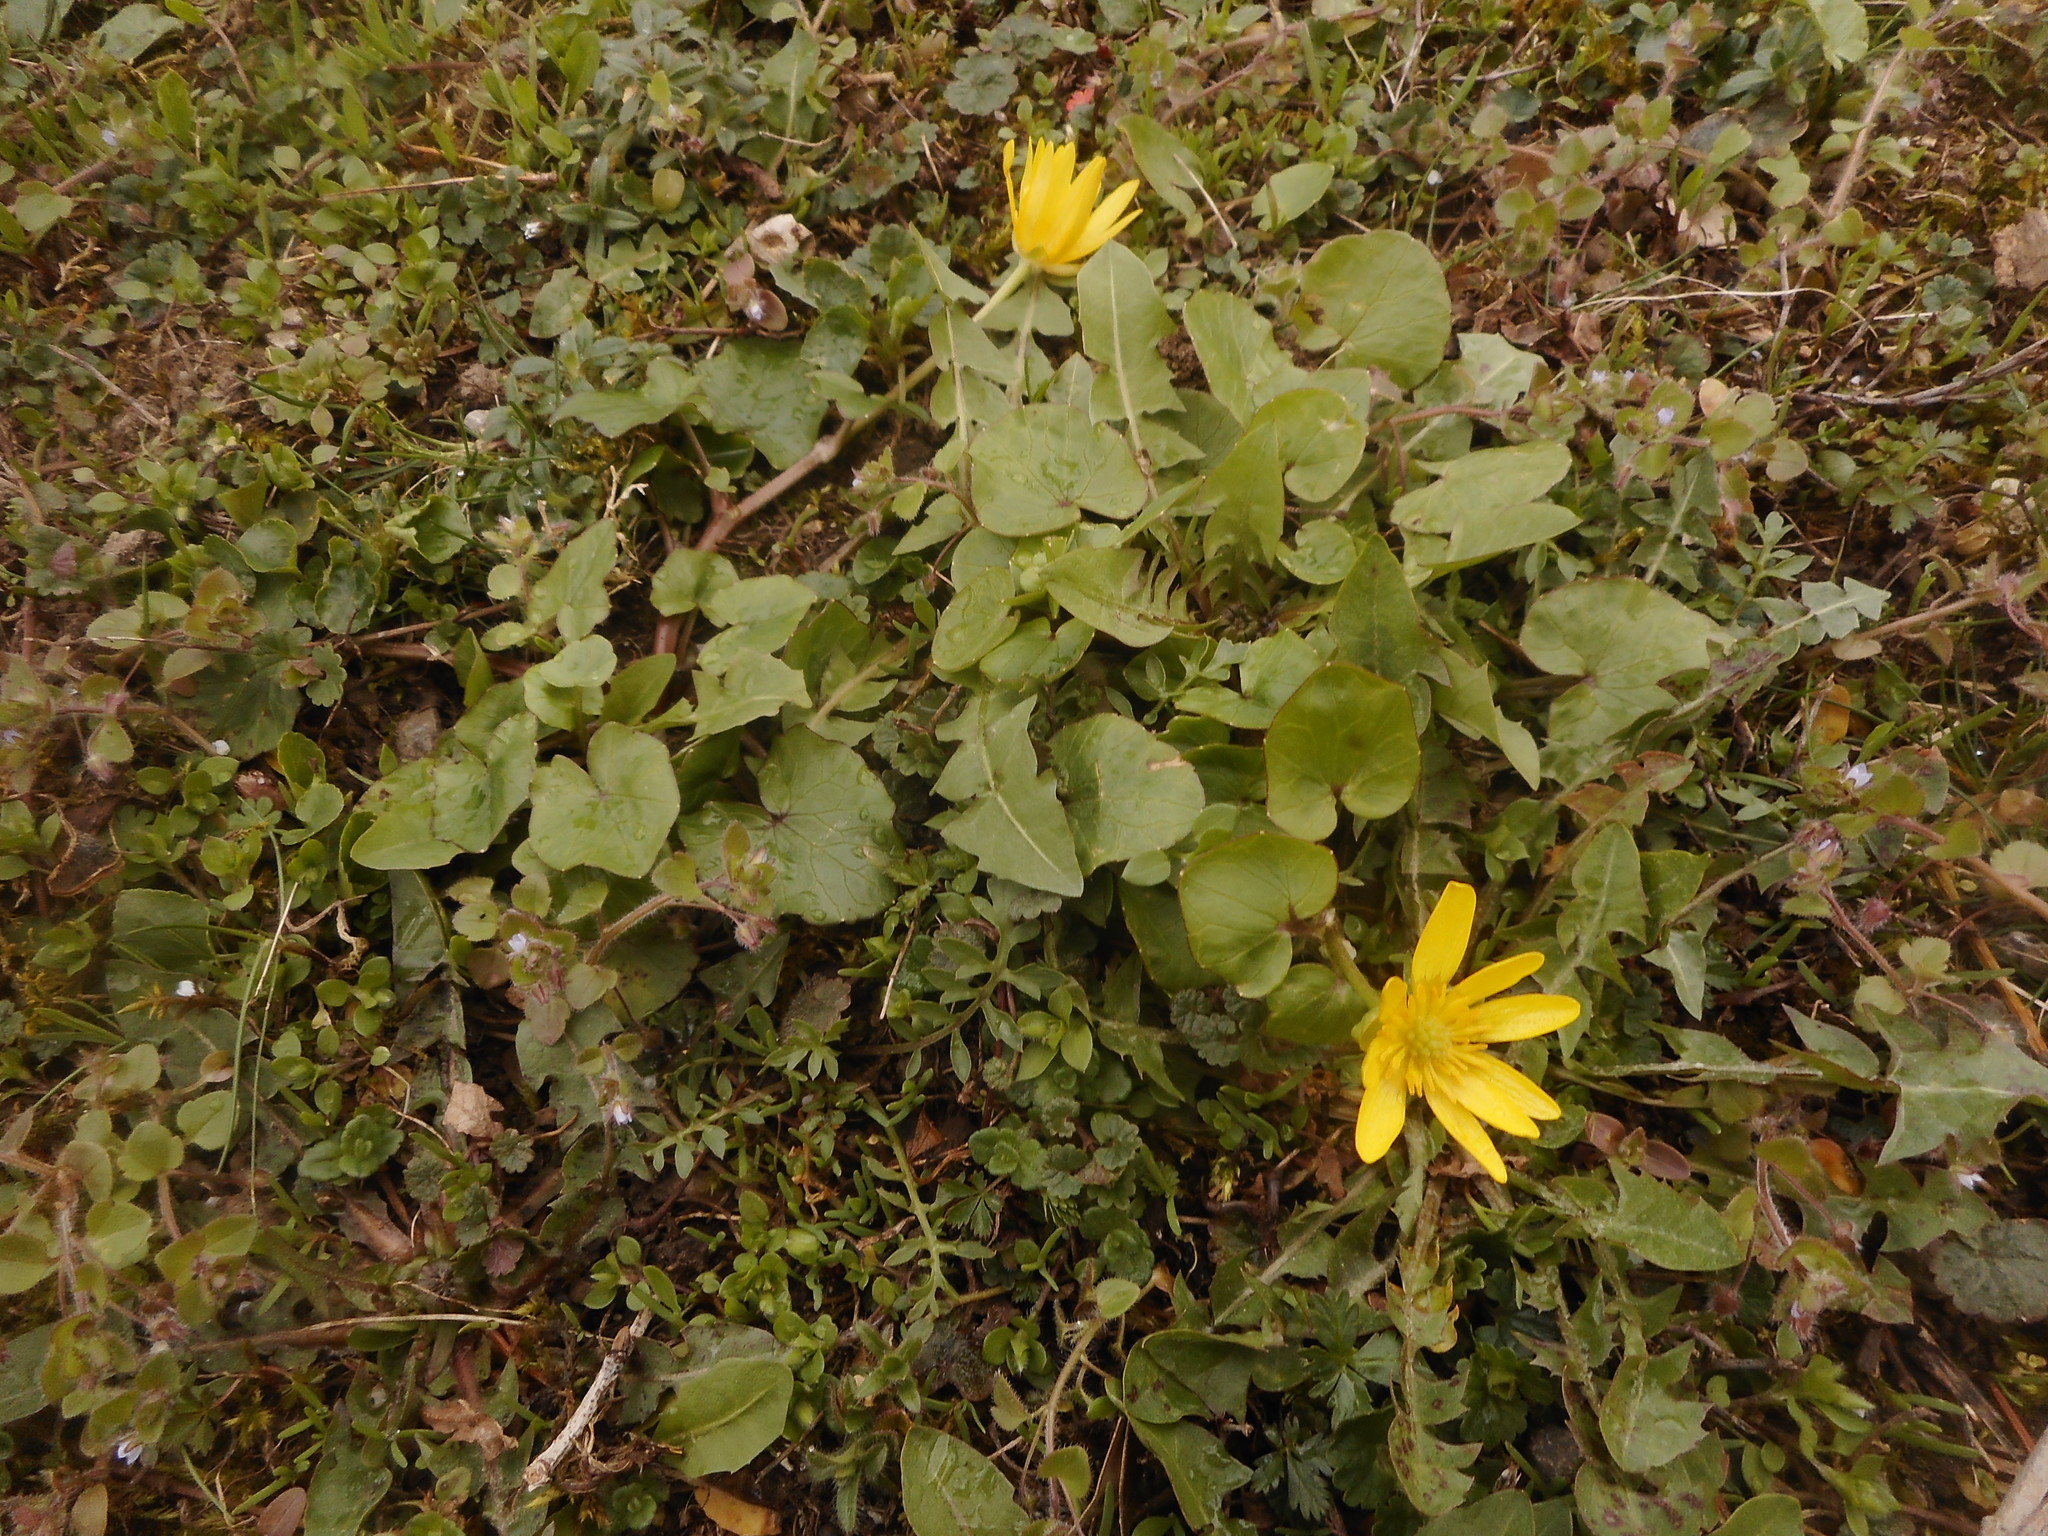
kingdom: Plantae
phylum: Tracheophyta
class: Magnoliopsida
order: Ranunculales
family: Ranunculaceae
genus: Ficaria
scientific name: Ficaria verna
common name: Lesser celandine
